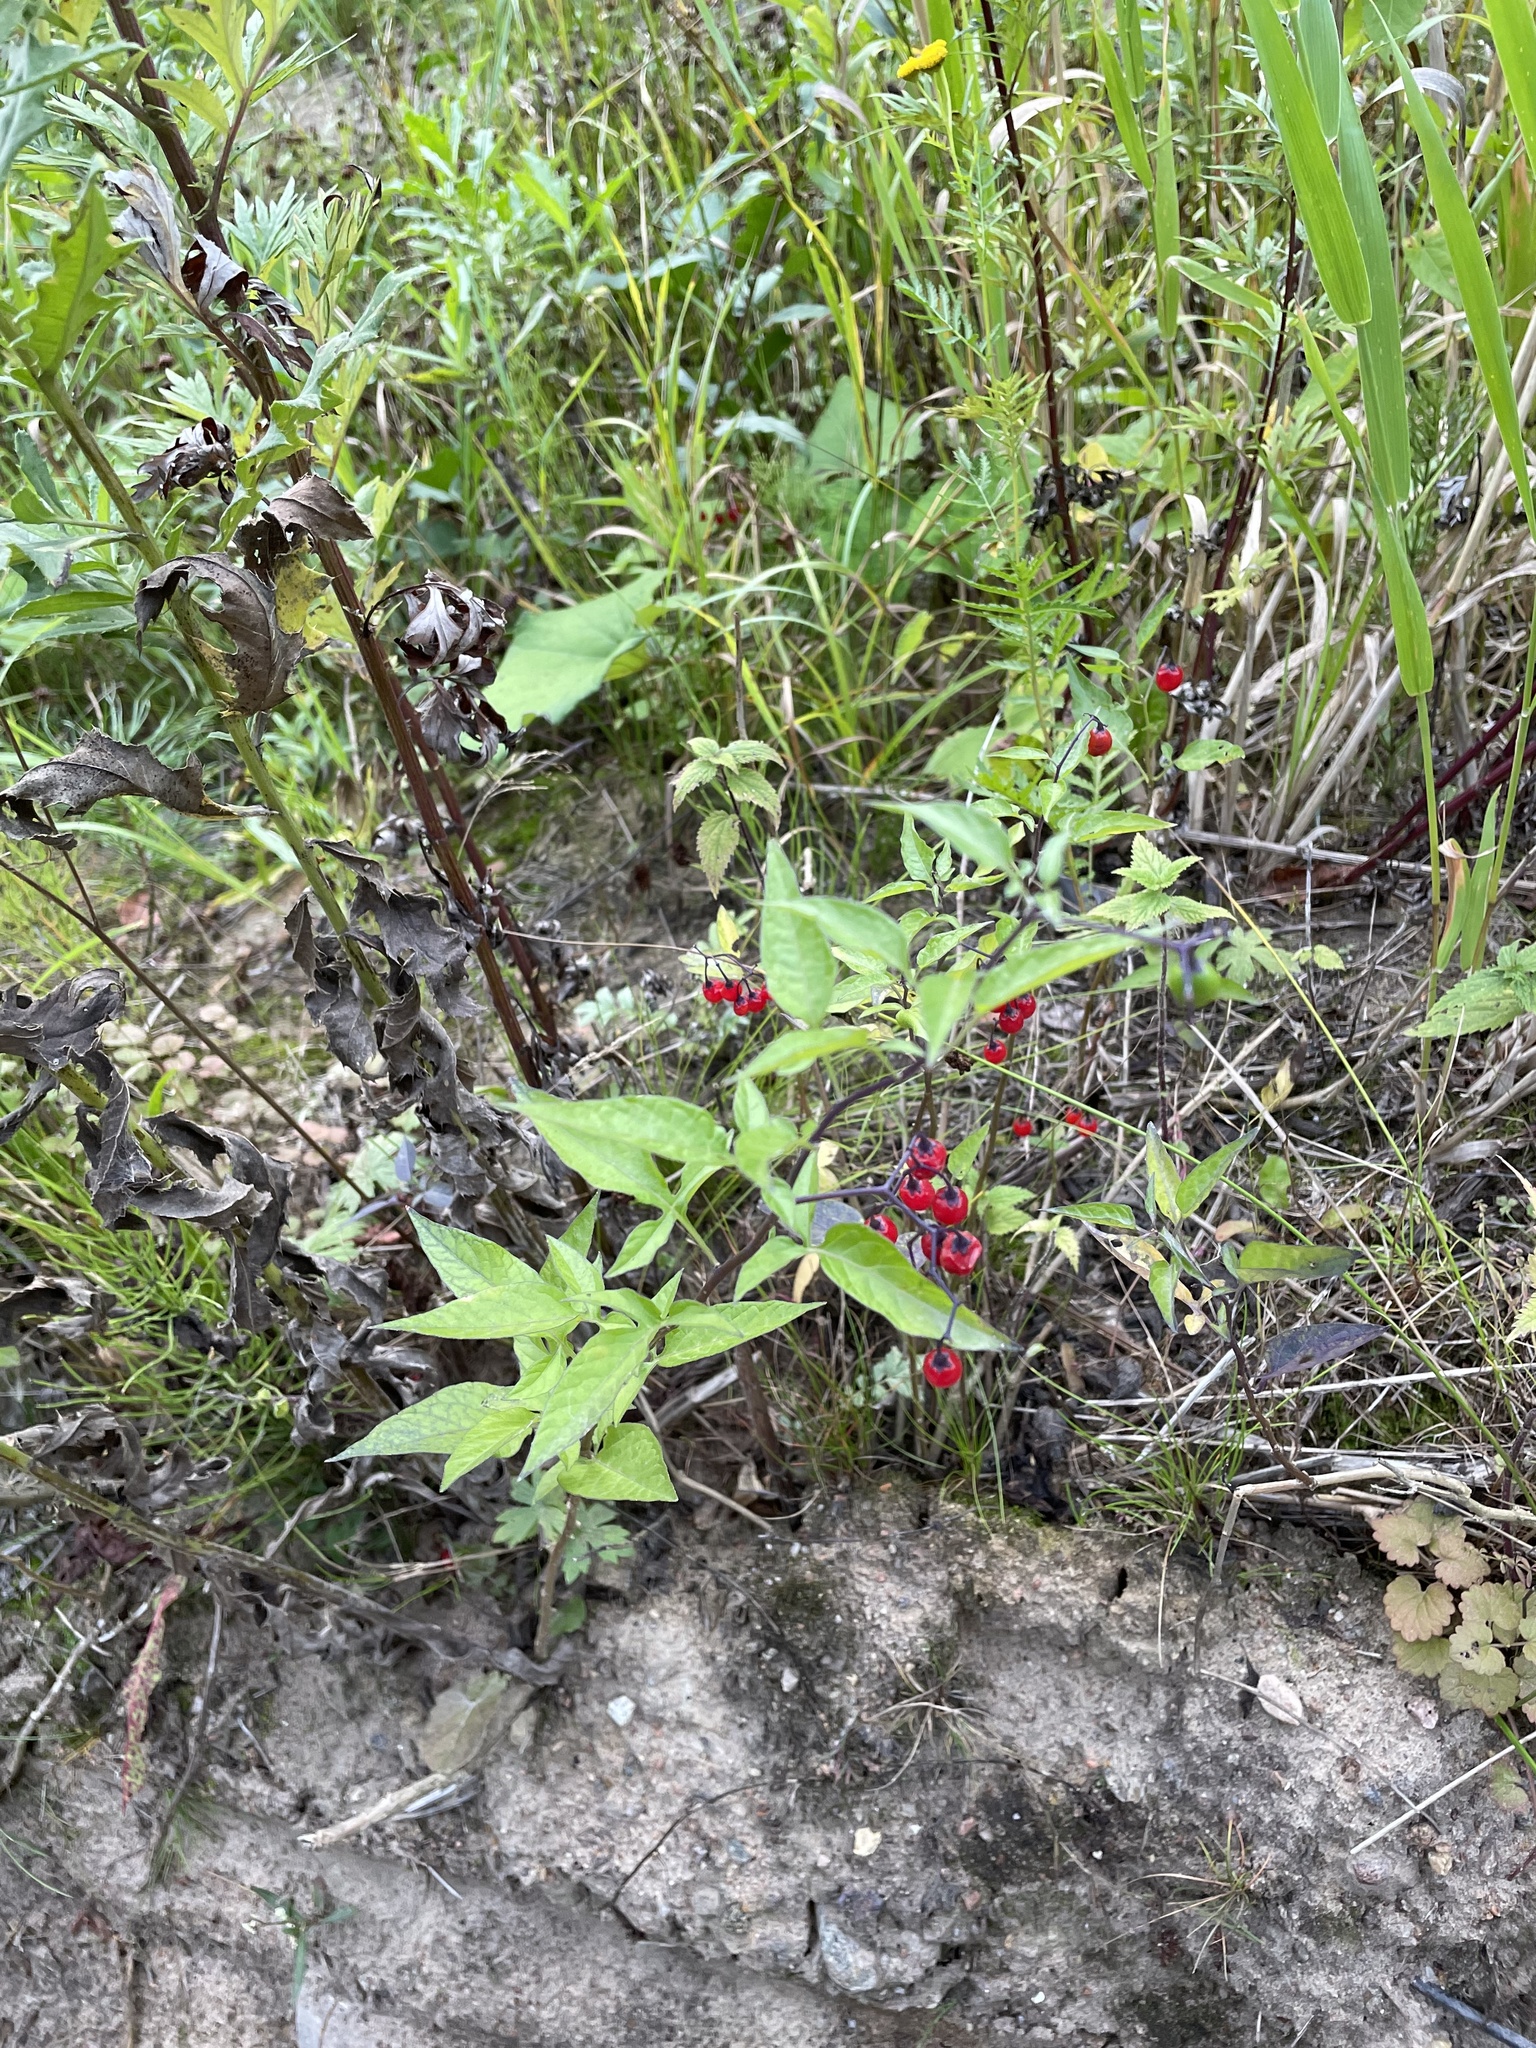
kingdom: Plantae
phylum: Tracheophyta
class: Magnoliopsida
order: Solanales
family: Solanaceae
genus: Solanum
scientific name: Solanum dulcamara
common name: Climbing nightshade
